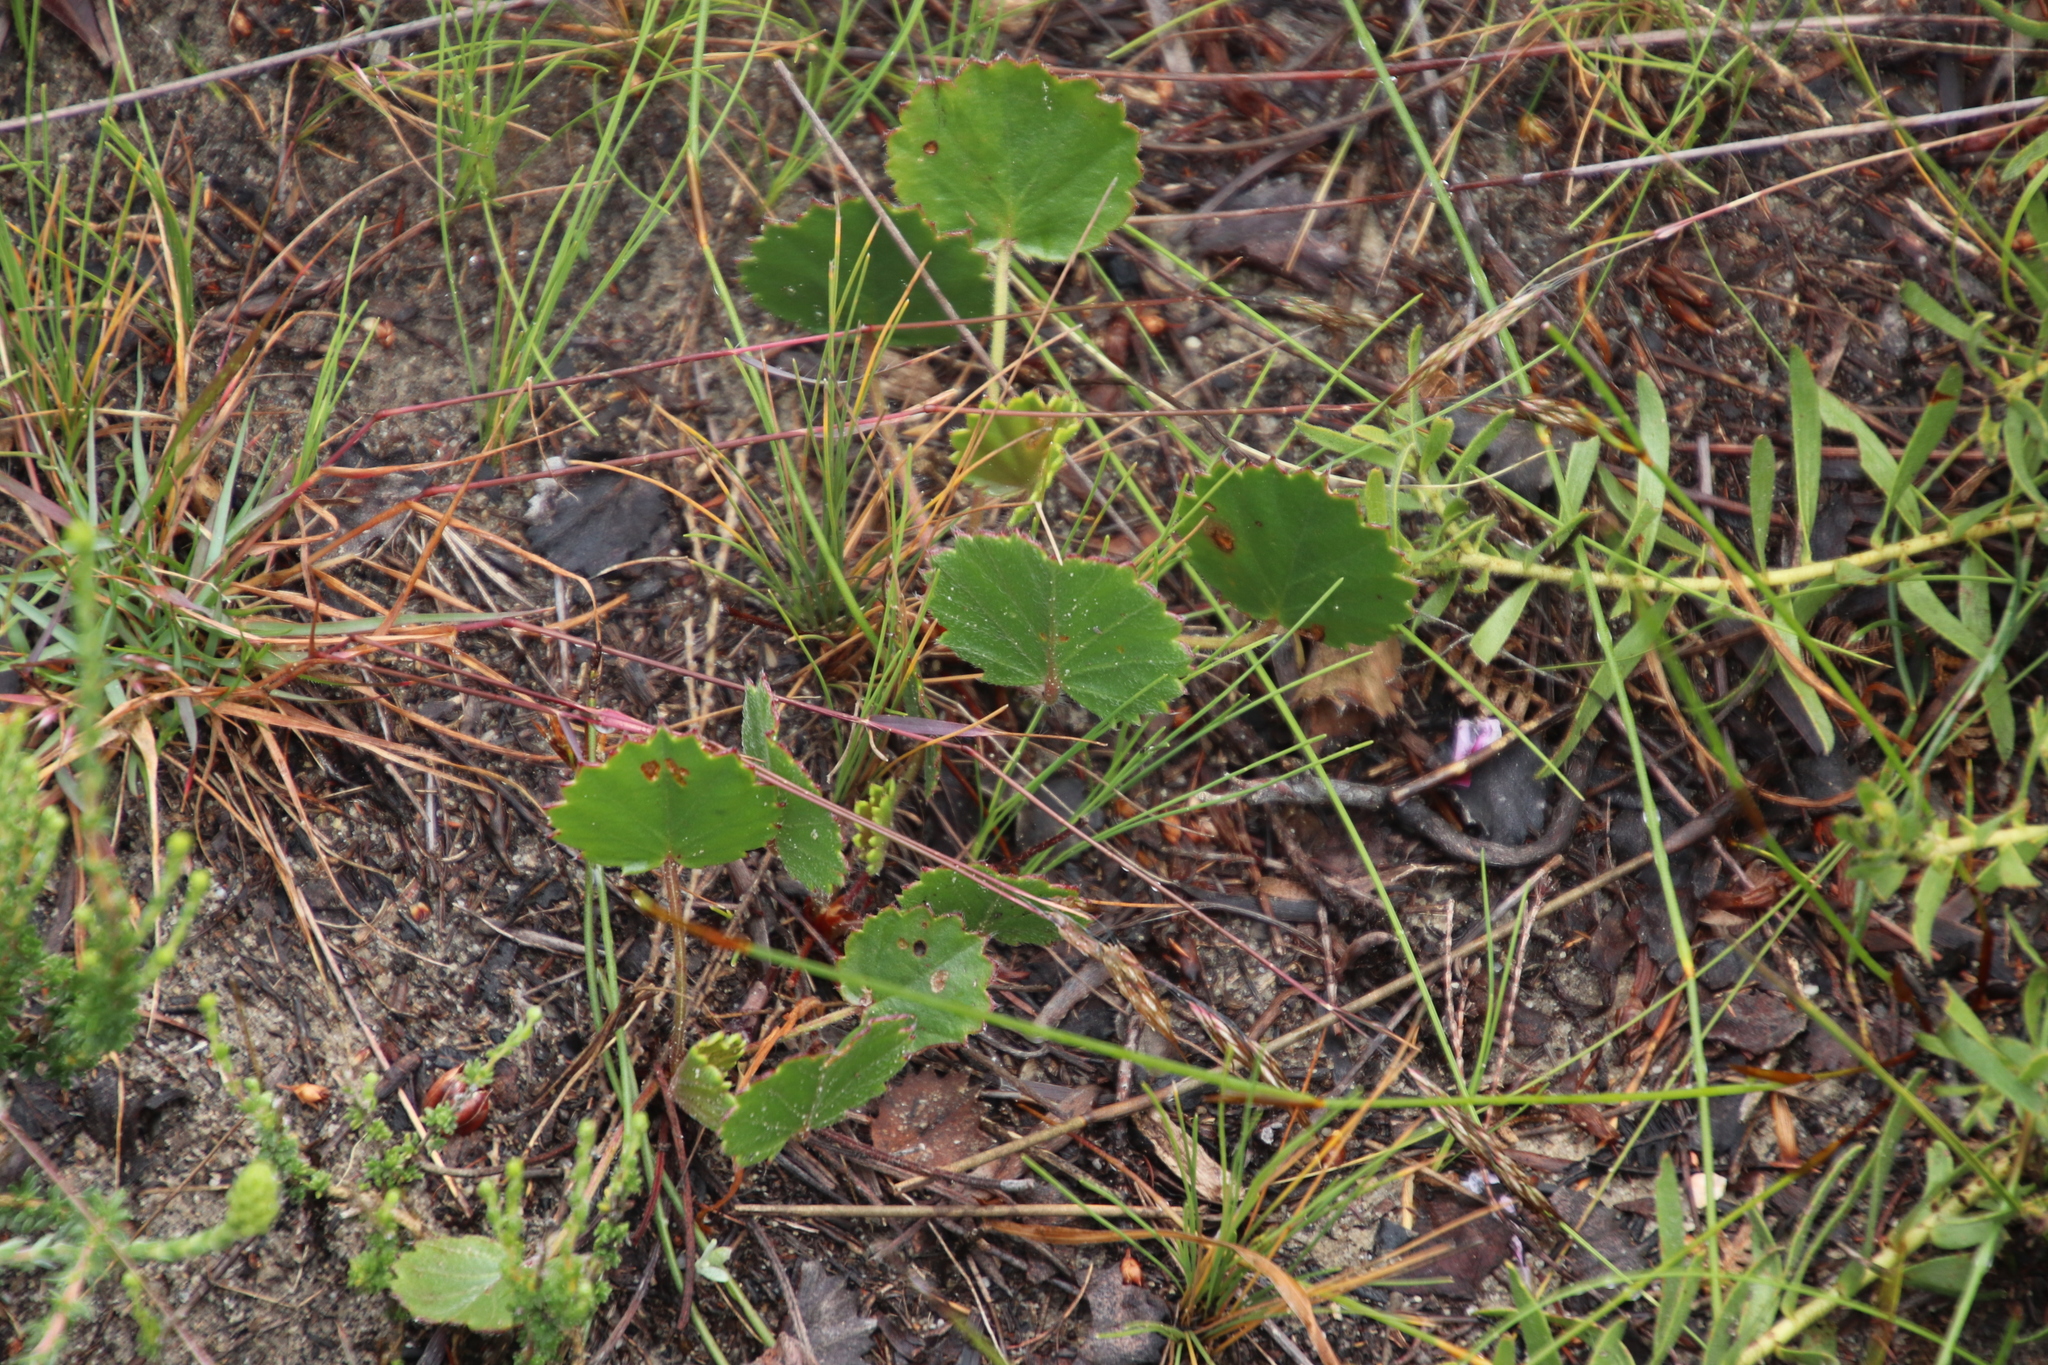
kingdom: Plantae
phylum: Tracheophyta
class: Magnoliopsida
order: Geraniales
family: Geraniaceae
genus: Pelargonium
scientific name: Pelargonium elegans
